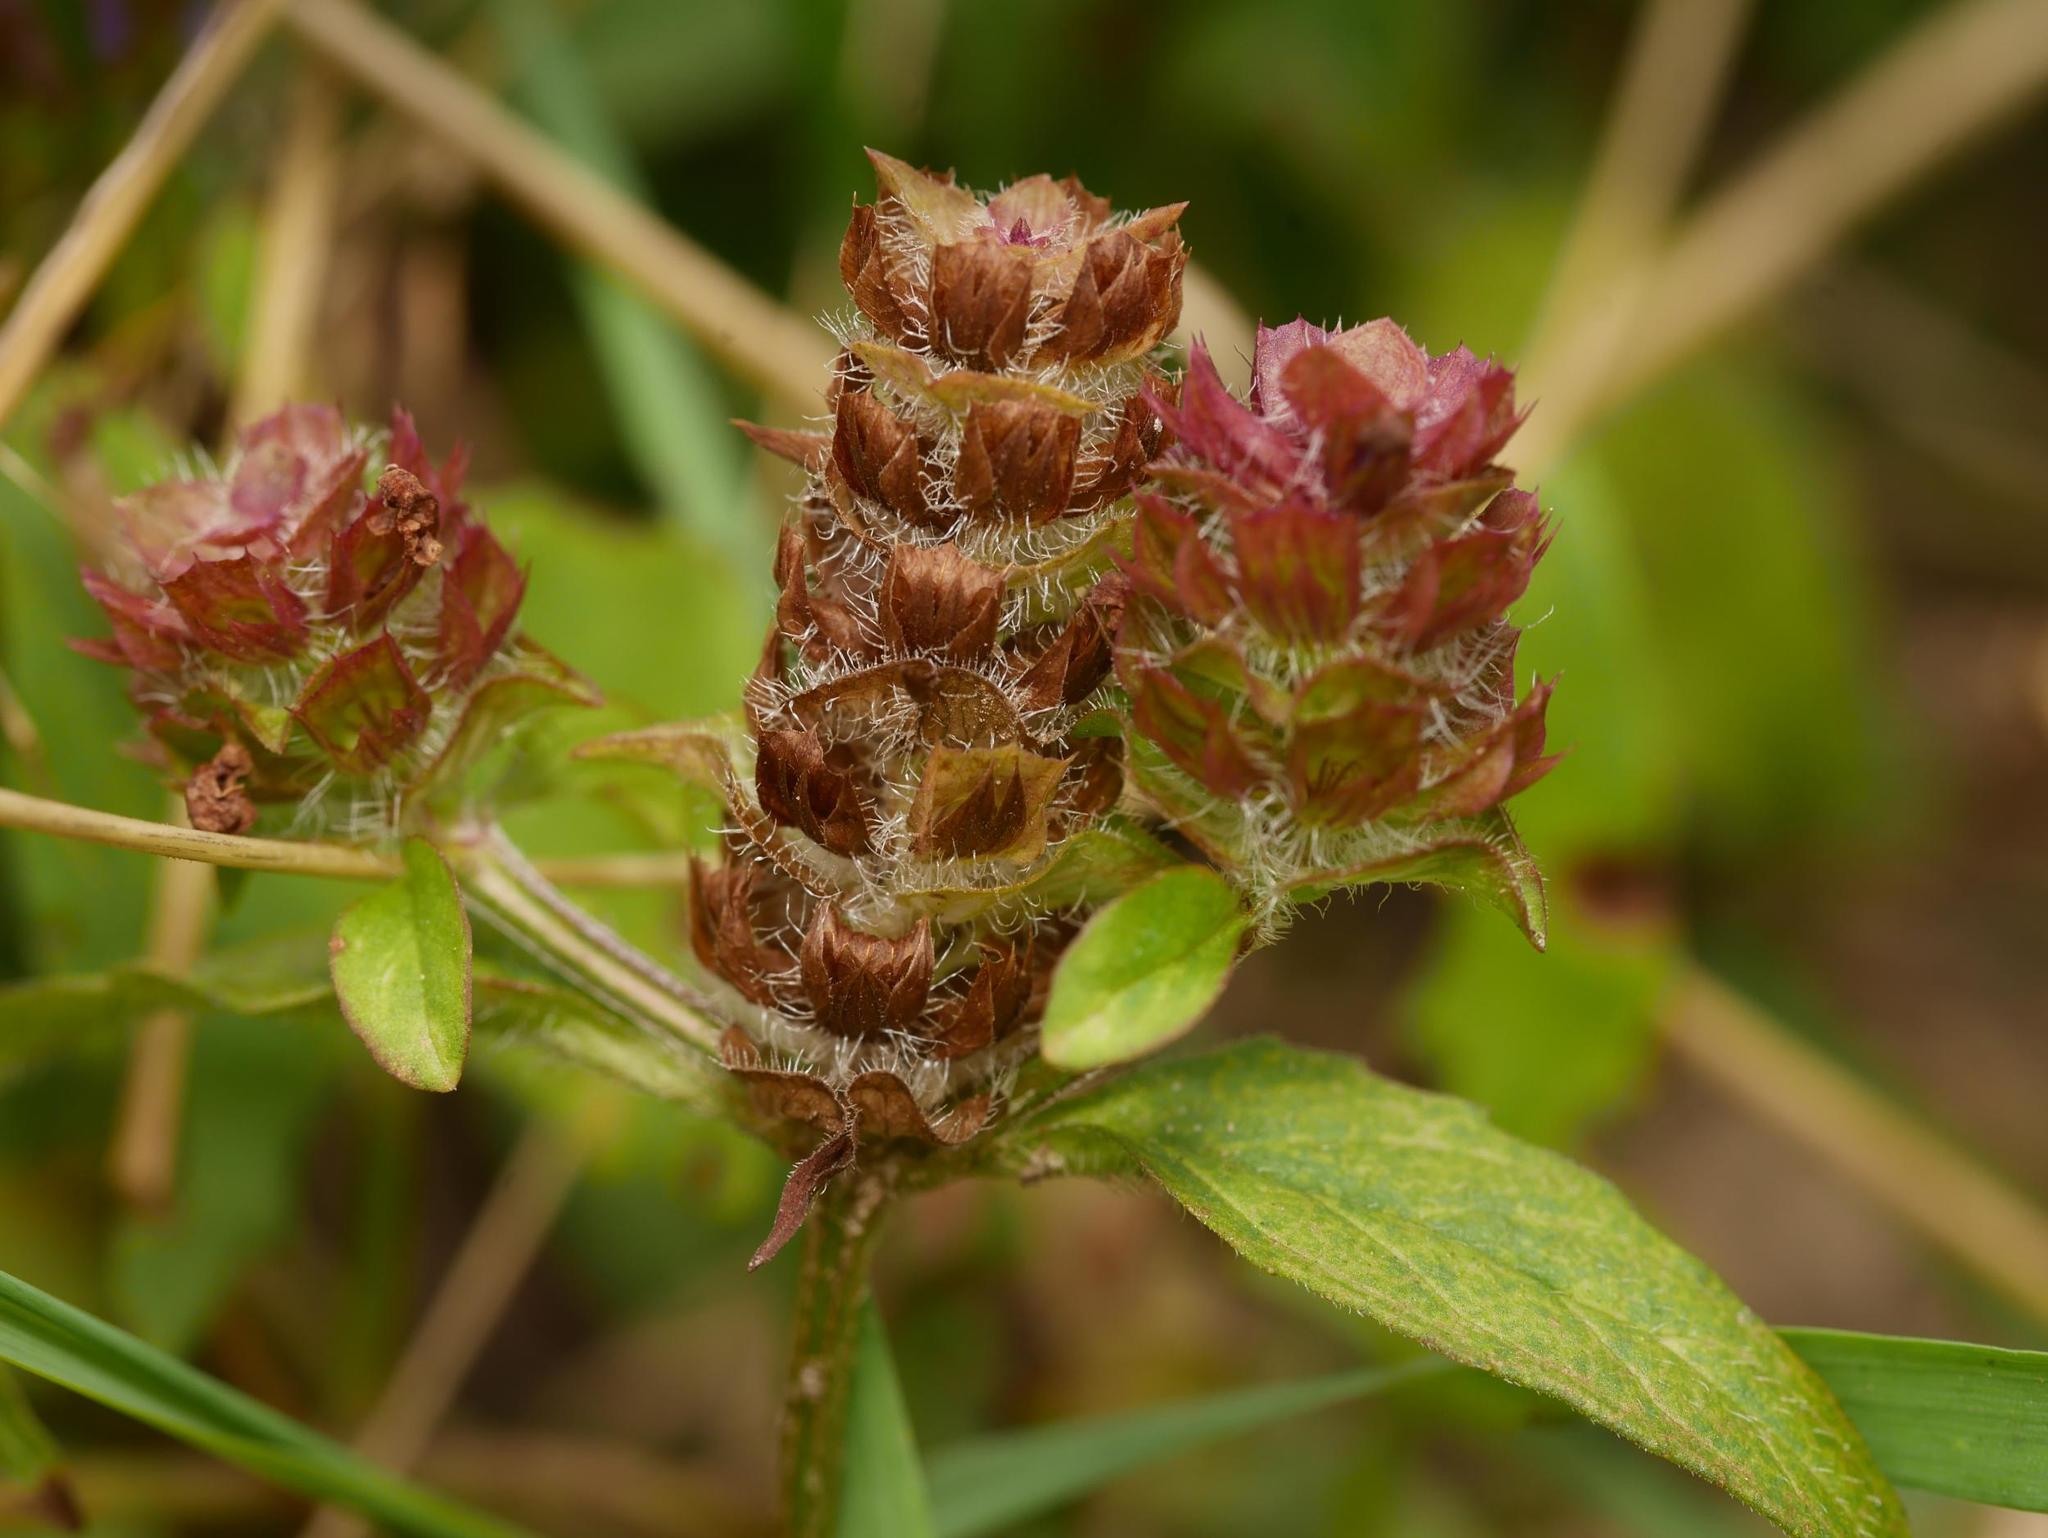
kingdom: Plantae
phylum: Tracheophyta
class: Magnoliopsida
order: Lamiales
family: Lamiaceae
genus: Prunella
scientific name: Prunella vulgaris
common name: Heal-all
